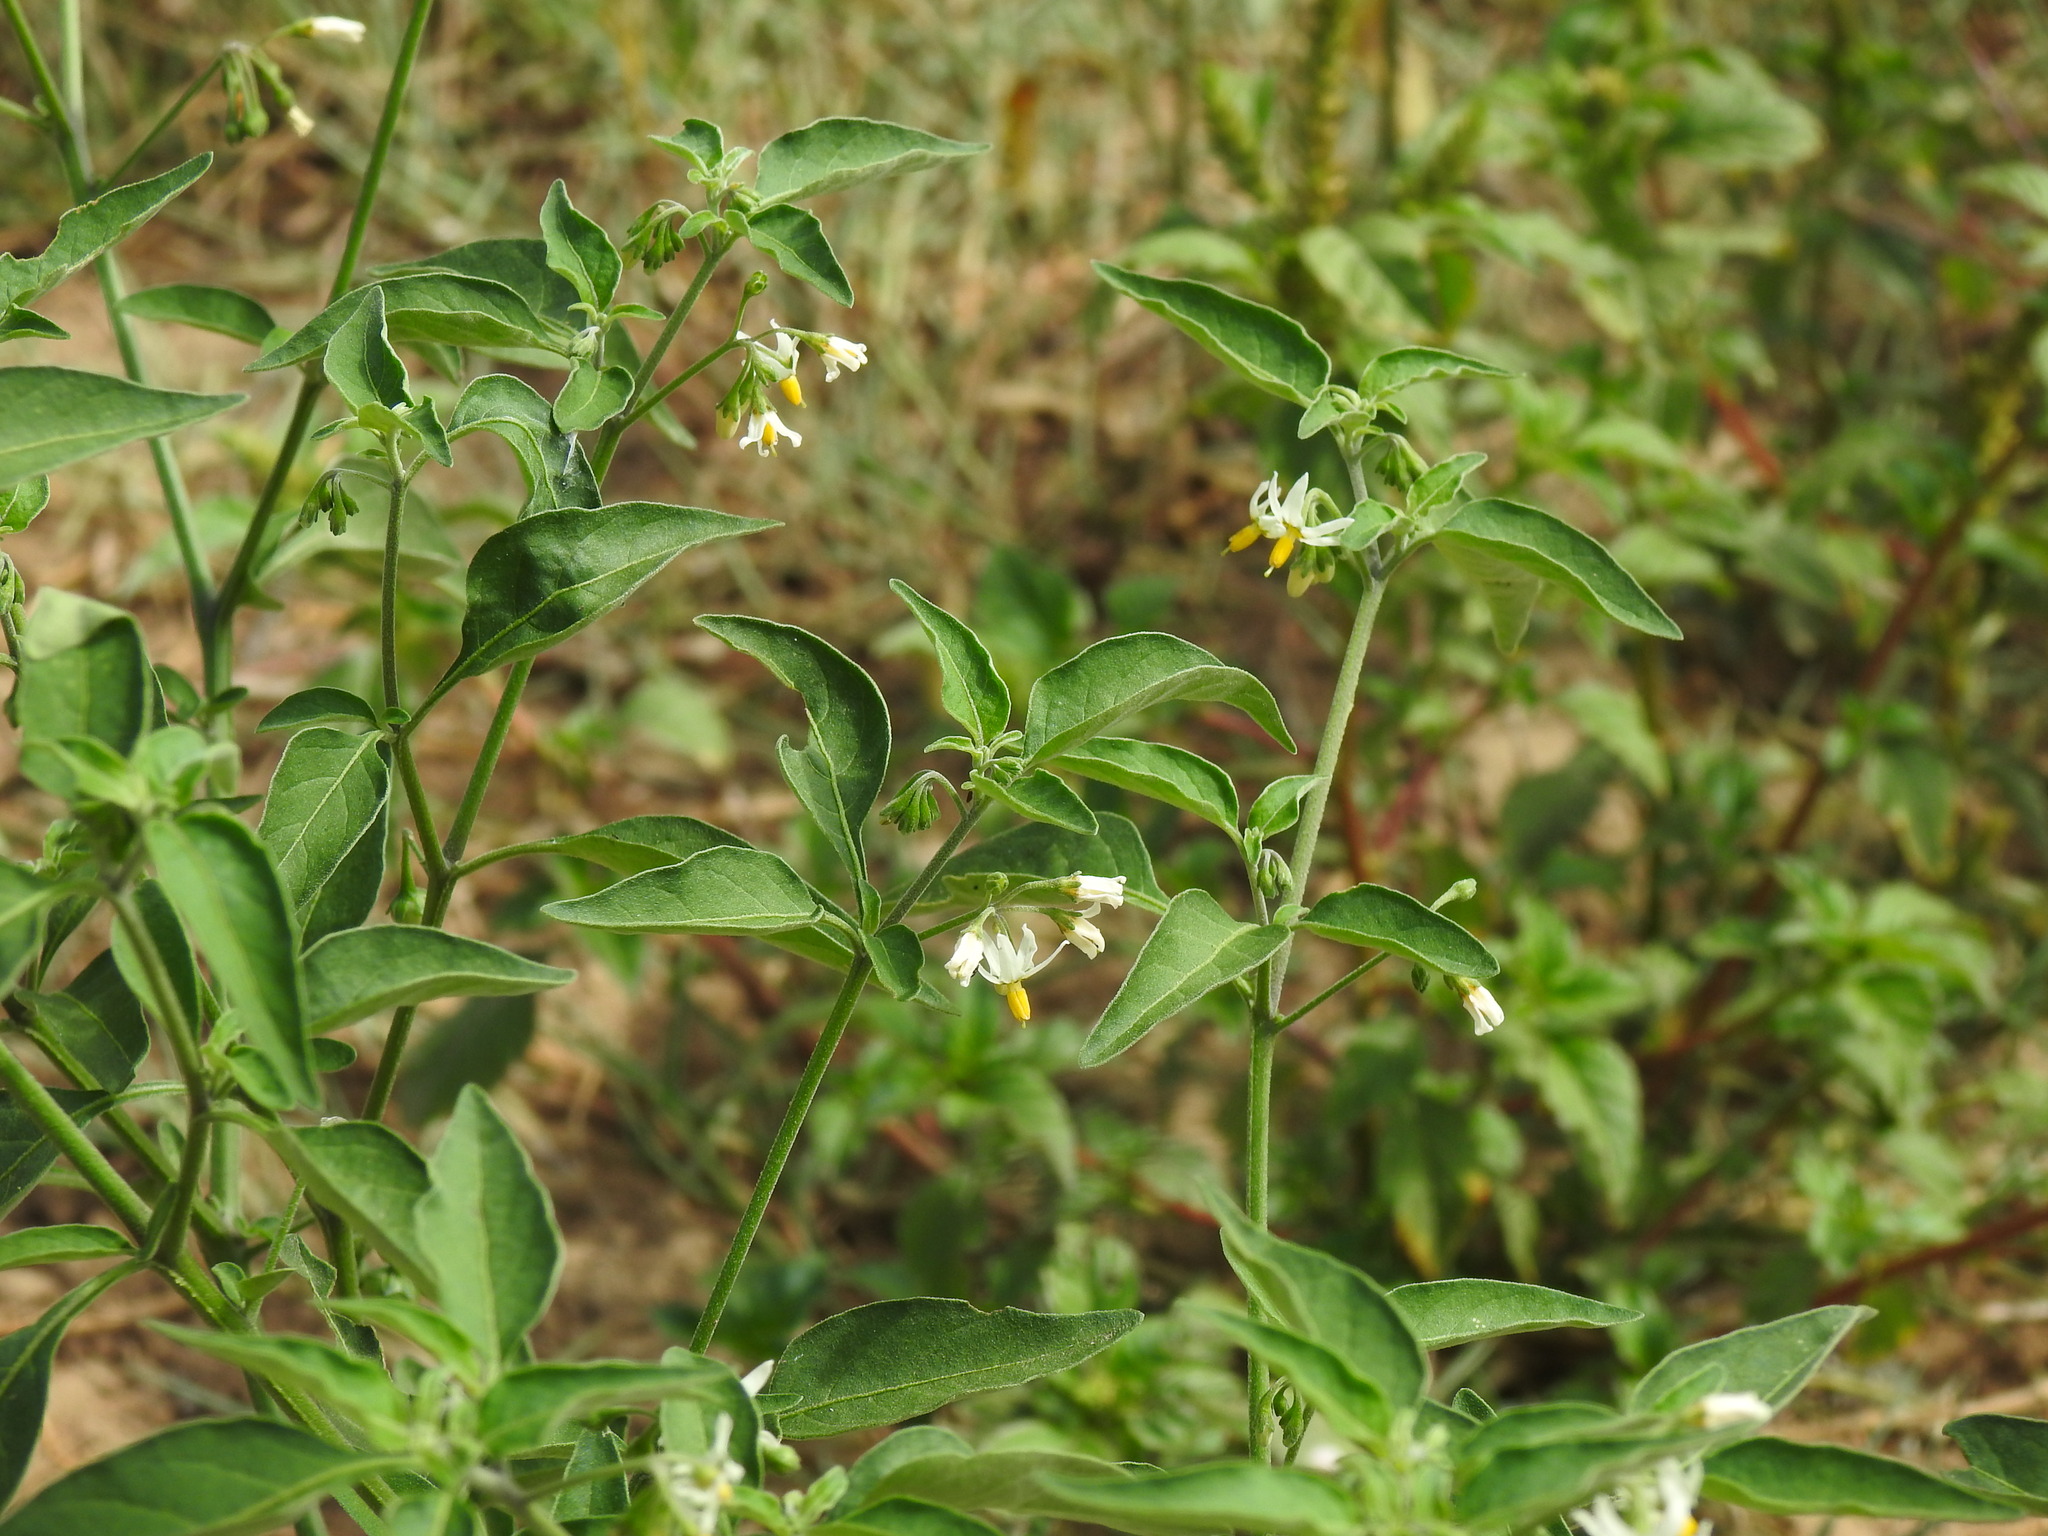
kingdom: Plantae
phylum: Tracheophyta
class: Magnoliopsida
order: Solanales
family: Solanaceae
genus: Solanum
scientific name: Solanum chenopodioides
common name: Tall nightshade
